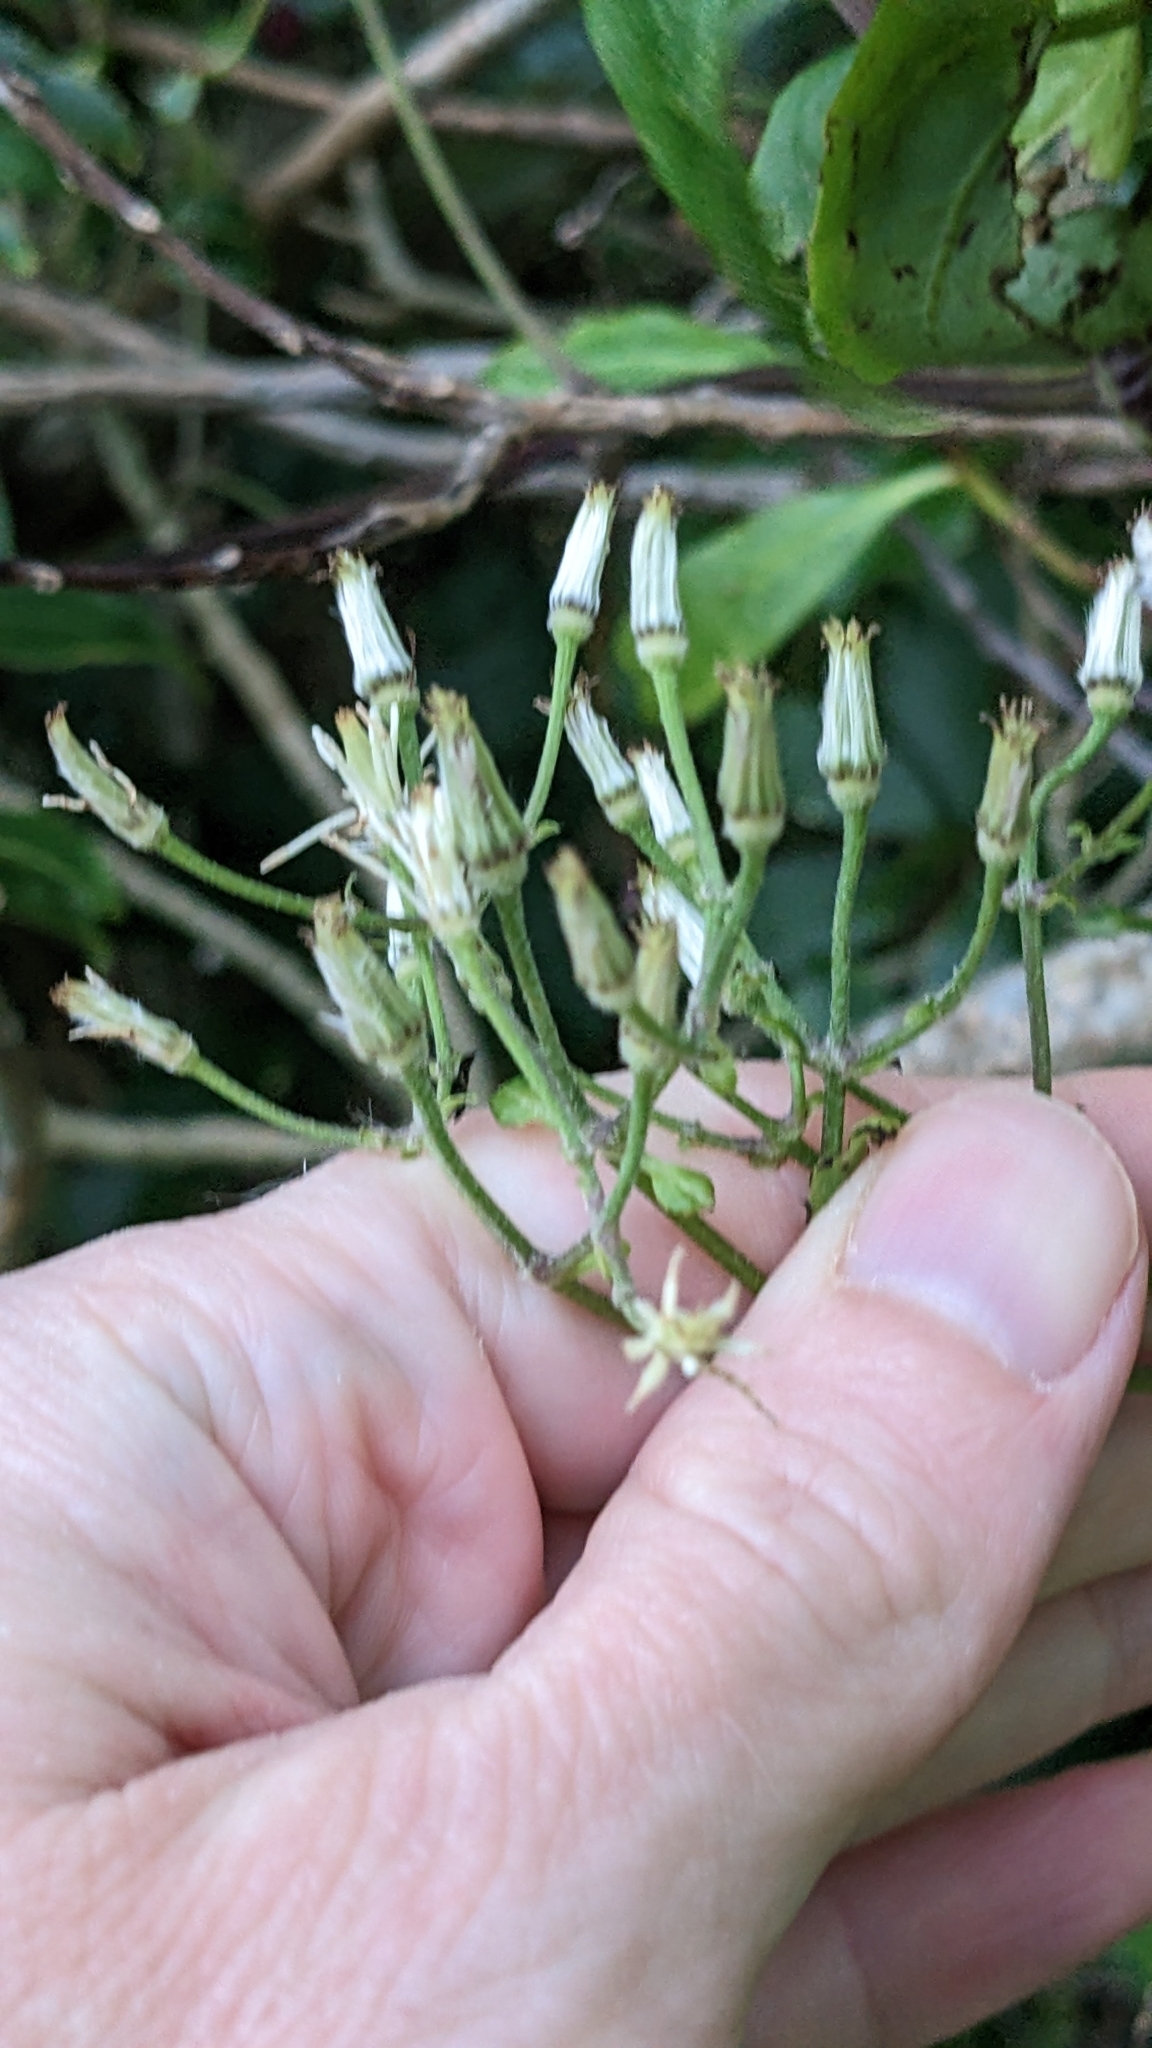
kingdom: Plantae
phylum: Tracheophyta
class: Magnoliopsida
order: Ranunculales
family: Ranunculaceae
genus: Clematis
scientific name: Clematis vitalba
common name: Evergreen clematis
